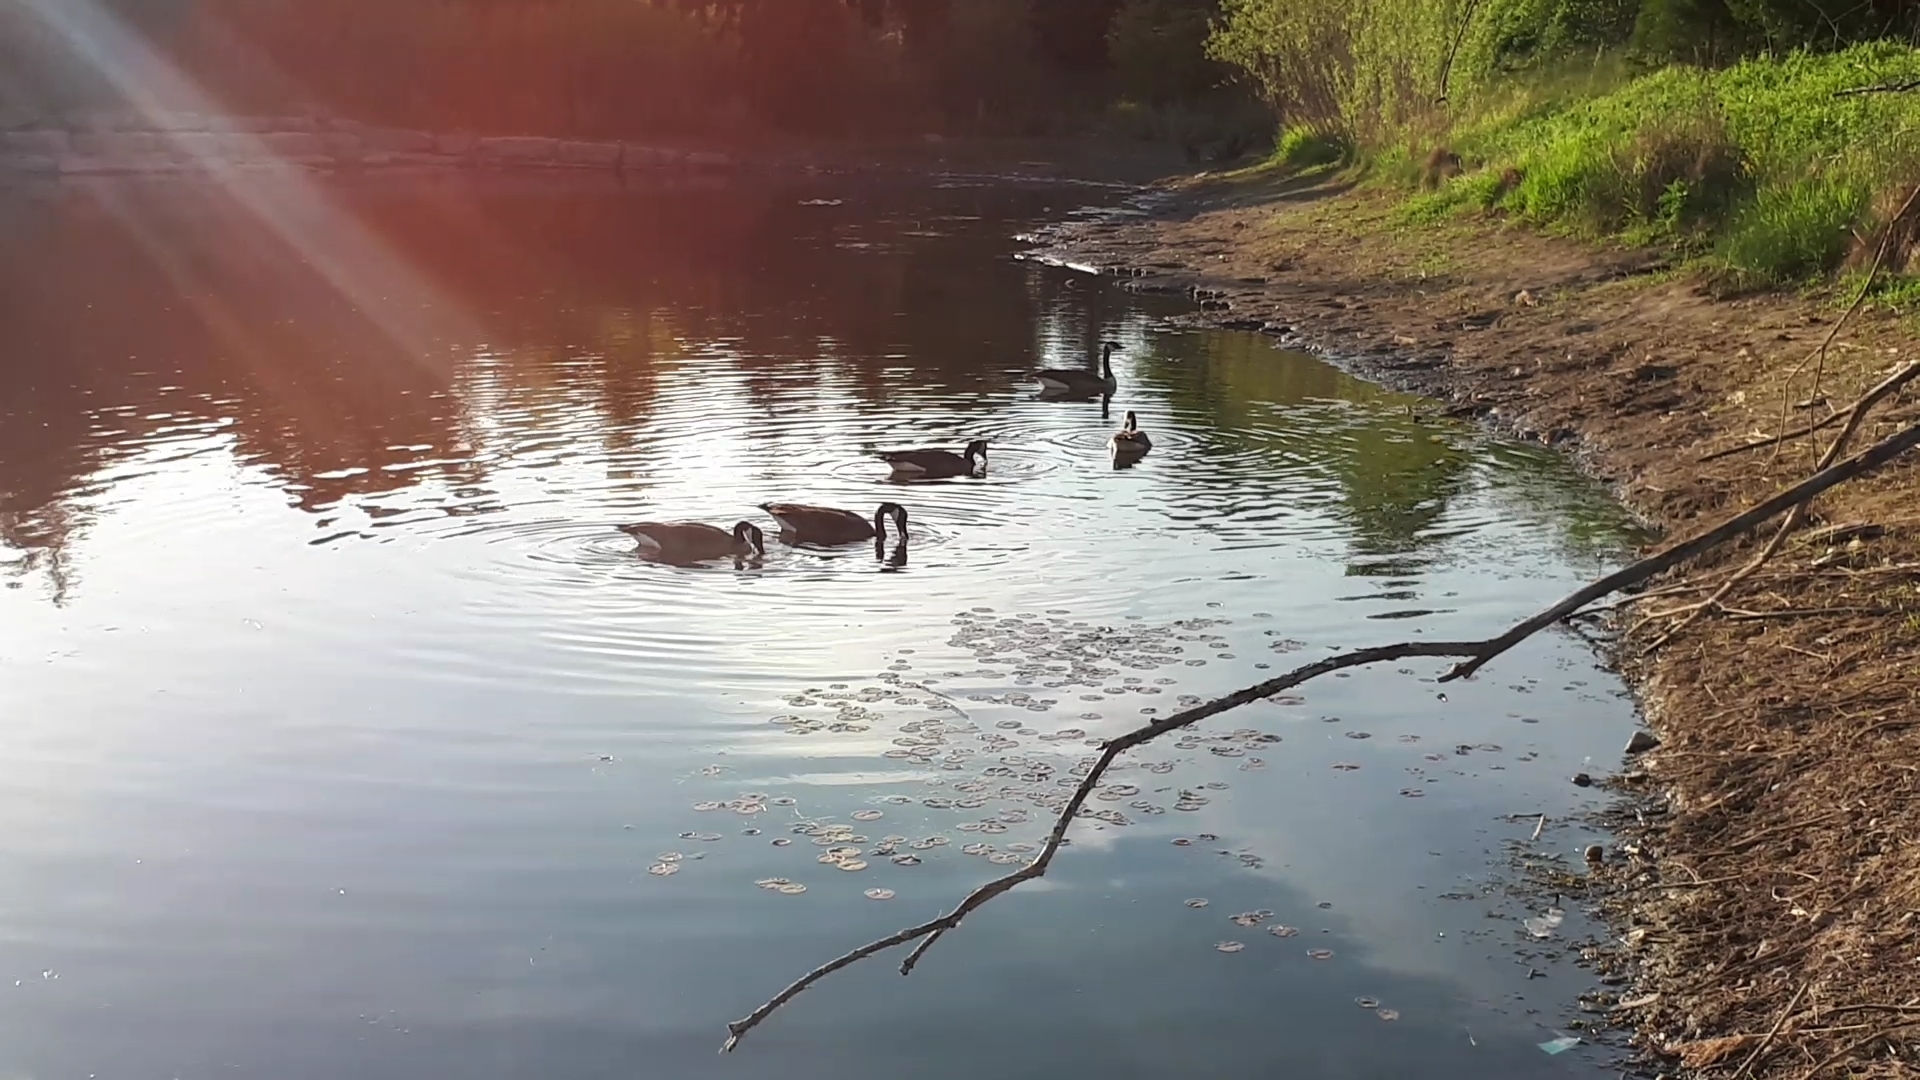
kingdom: Animalia
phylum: Chordata
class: Aves
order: Anseriformes
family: Anatidae
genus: Branta
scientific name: Branta canadensis
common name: Canada goose
